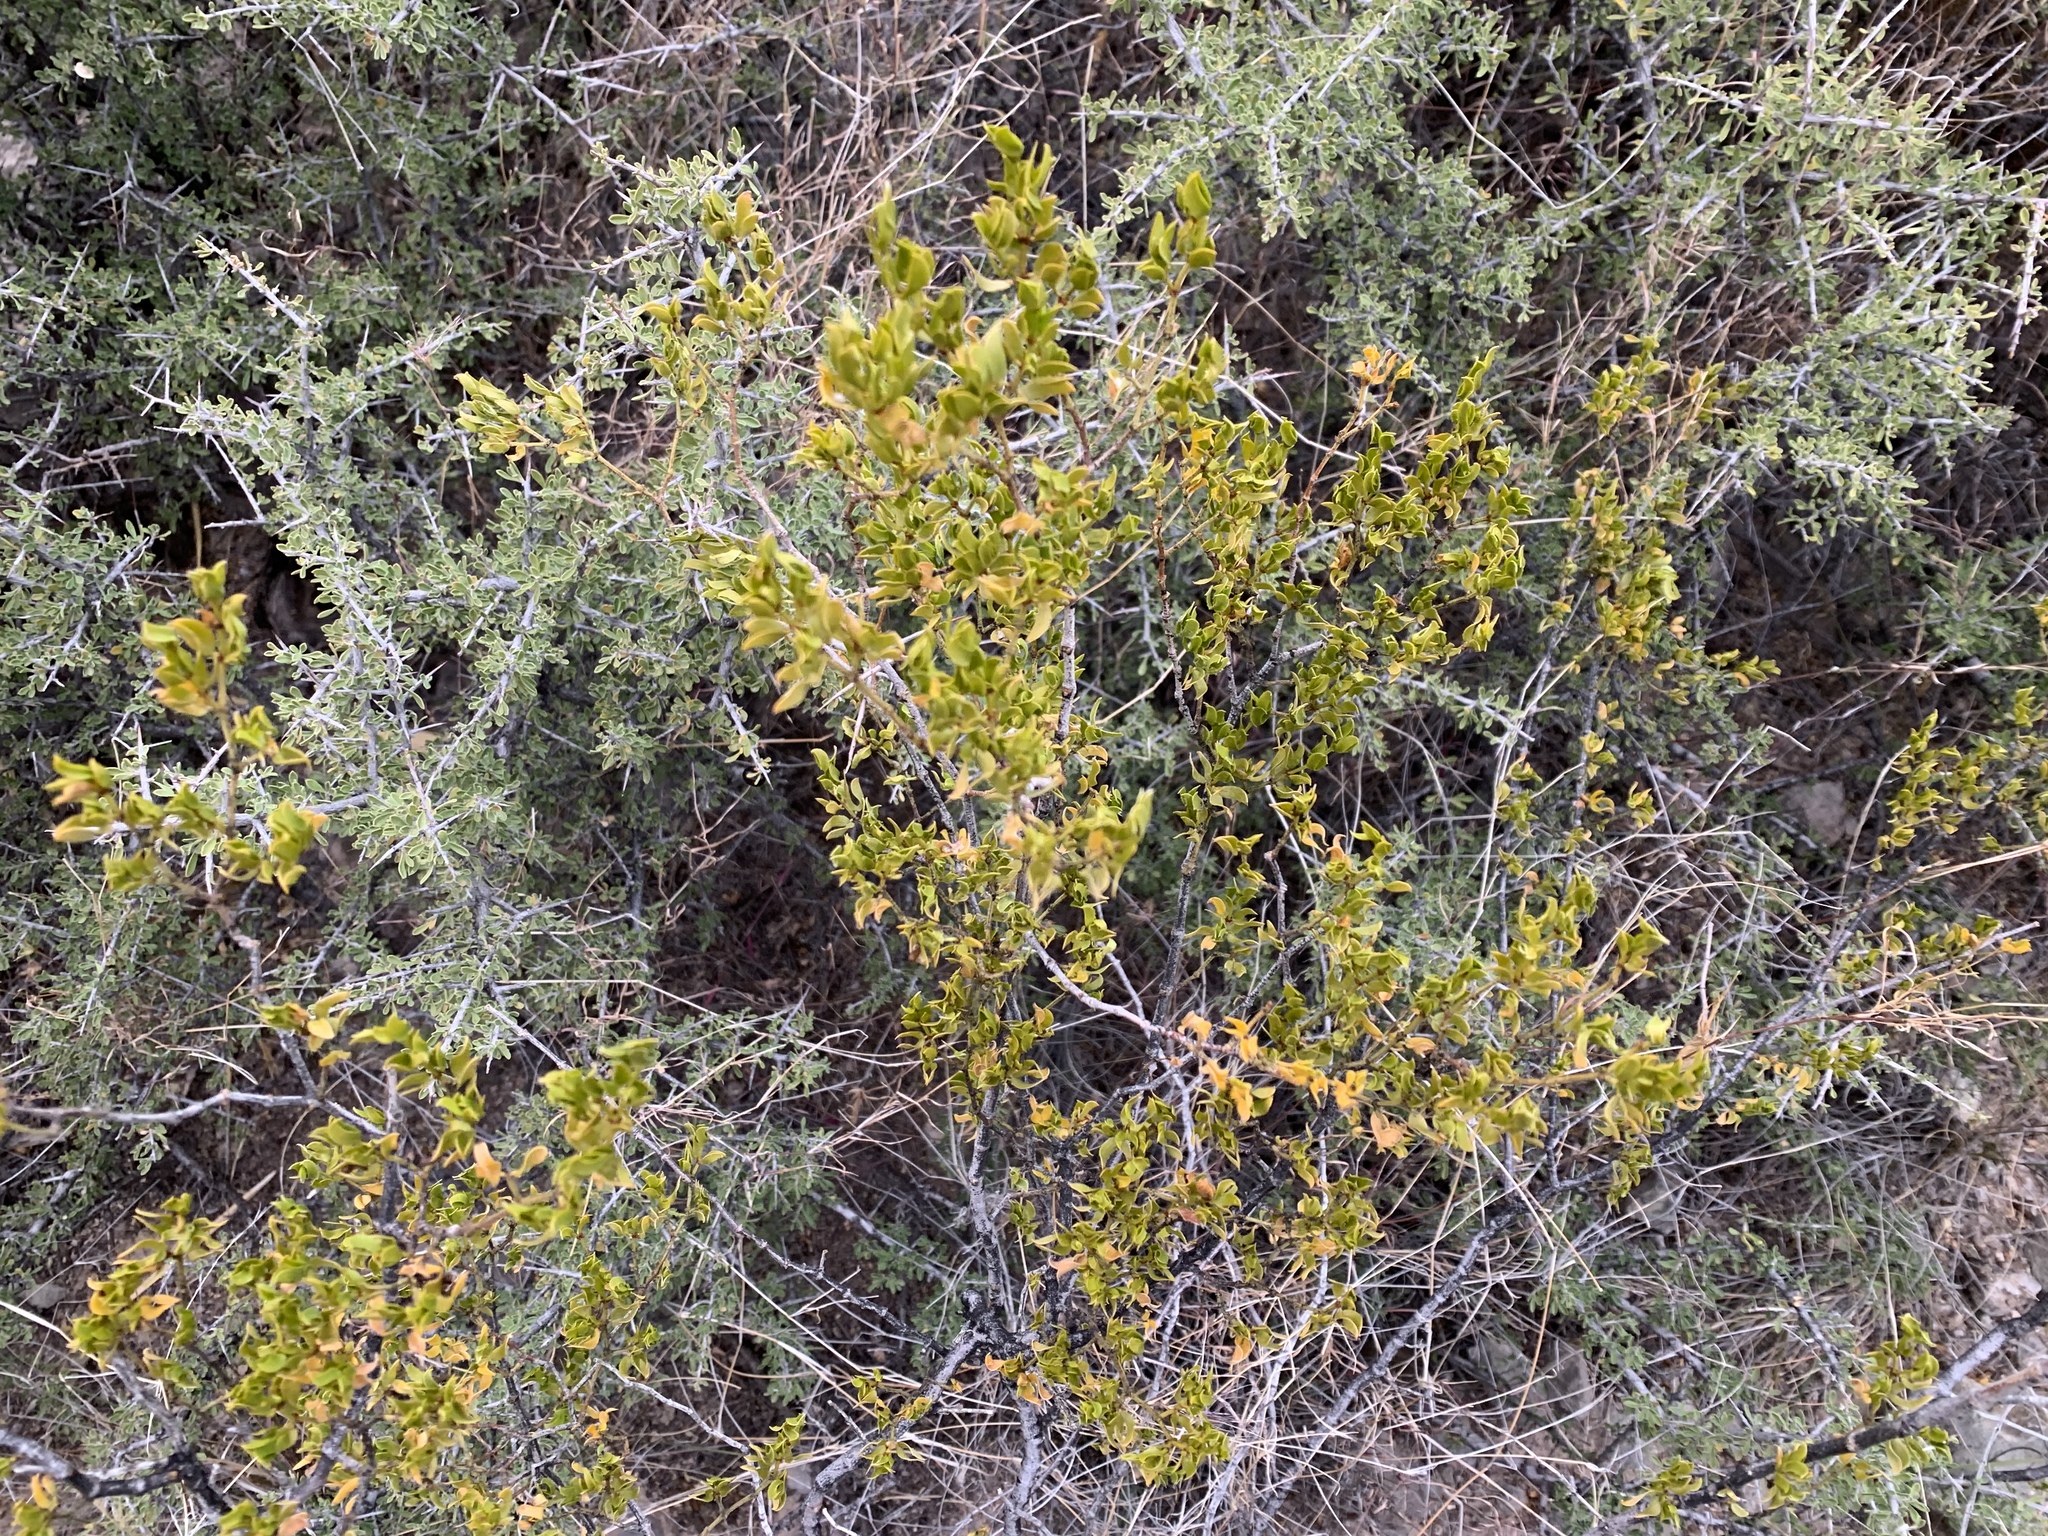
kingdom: Plantae
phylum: Tracheophyta
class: Magnoliopsida
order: Zygophyllales
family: Zygophyllaceae
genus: Larrea
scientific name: Larrea tridentata
